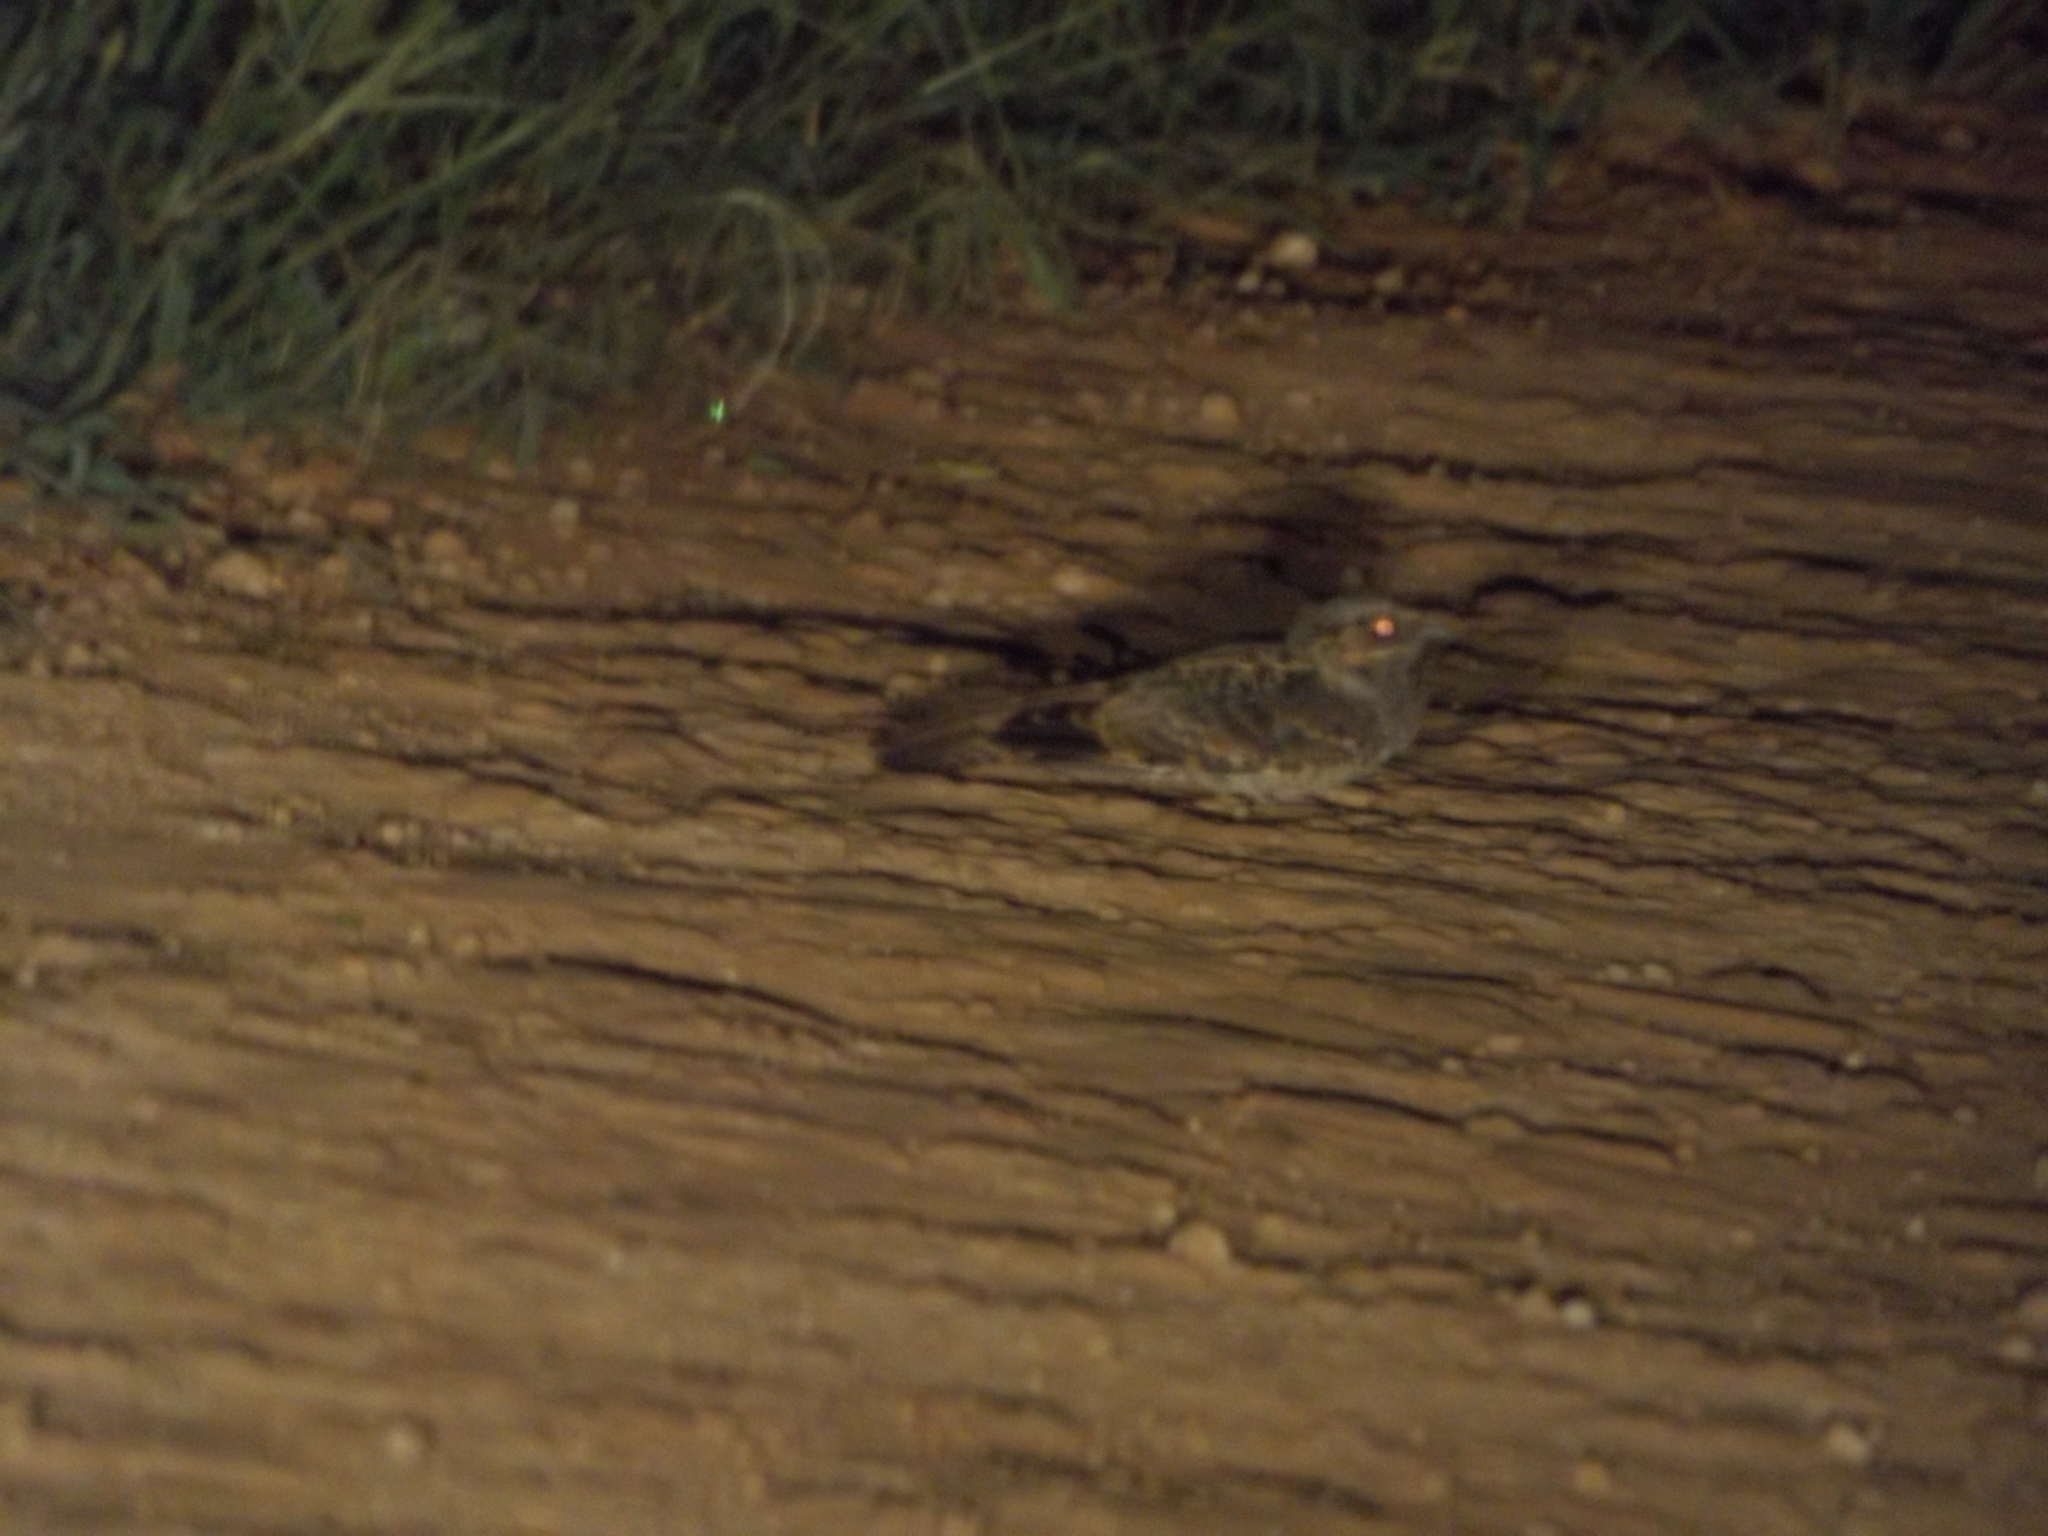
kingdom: Animalia
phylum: Chordata
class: Aves
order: Caprimulgiformes
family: Caprimulgidae
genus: Nyctidromus
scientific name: Nyctidromus albicollis
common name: Pauraque
